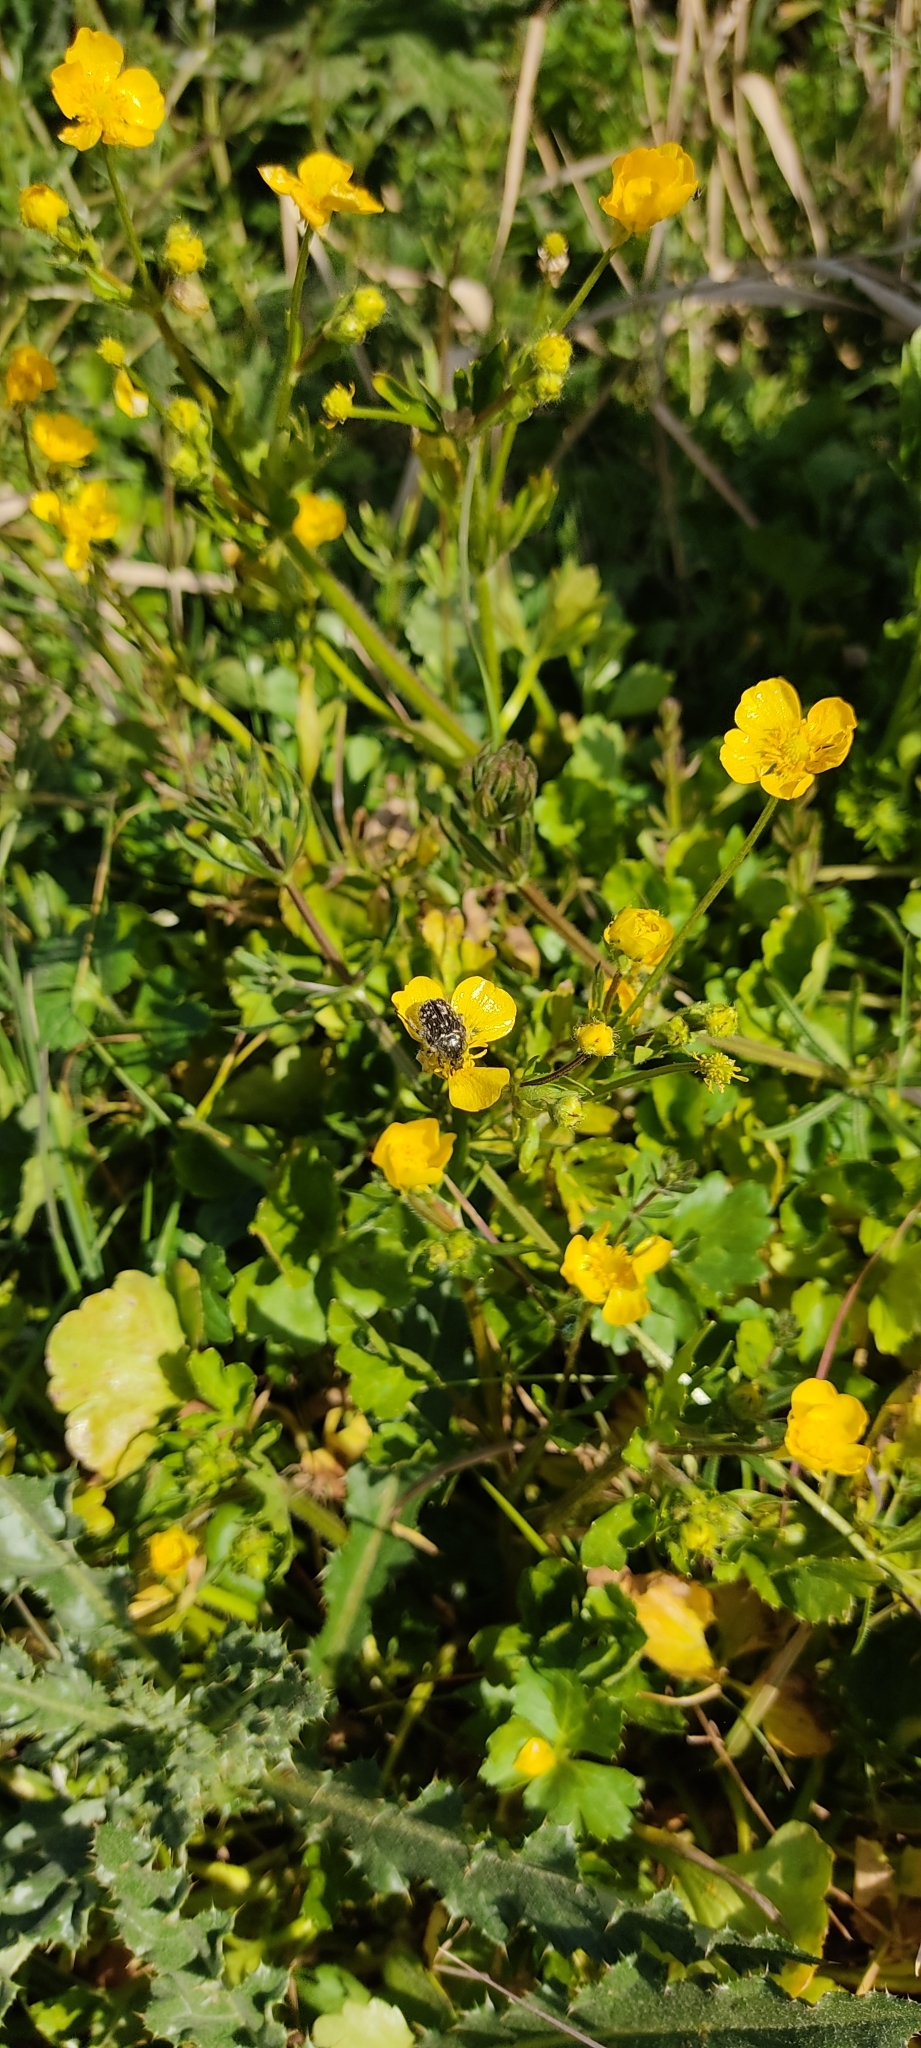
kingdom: Animalia
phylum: Arthropoda
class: Insecta
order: Coleoptera
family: Scarabaeidae
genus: Oxythyrea
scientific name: Oxythyrea funesta
